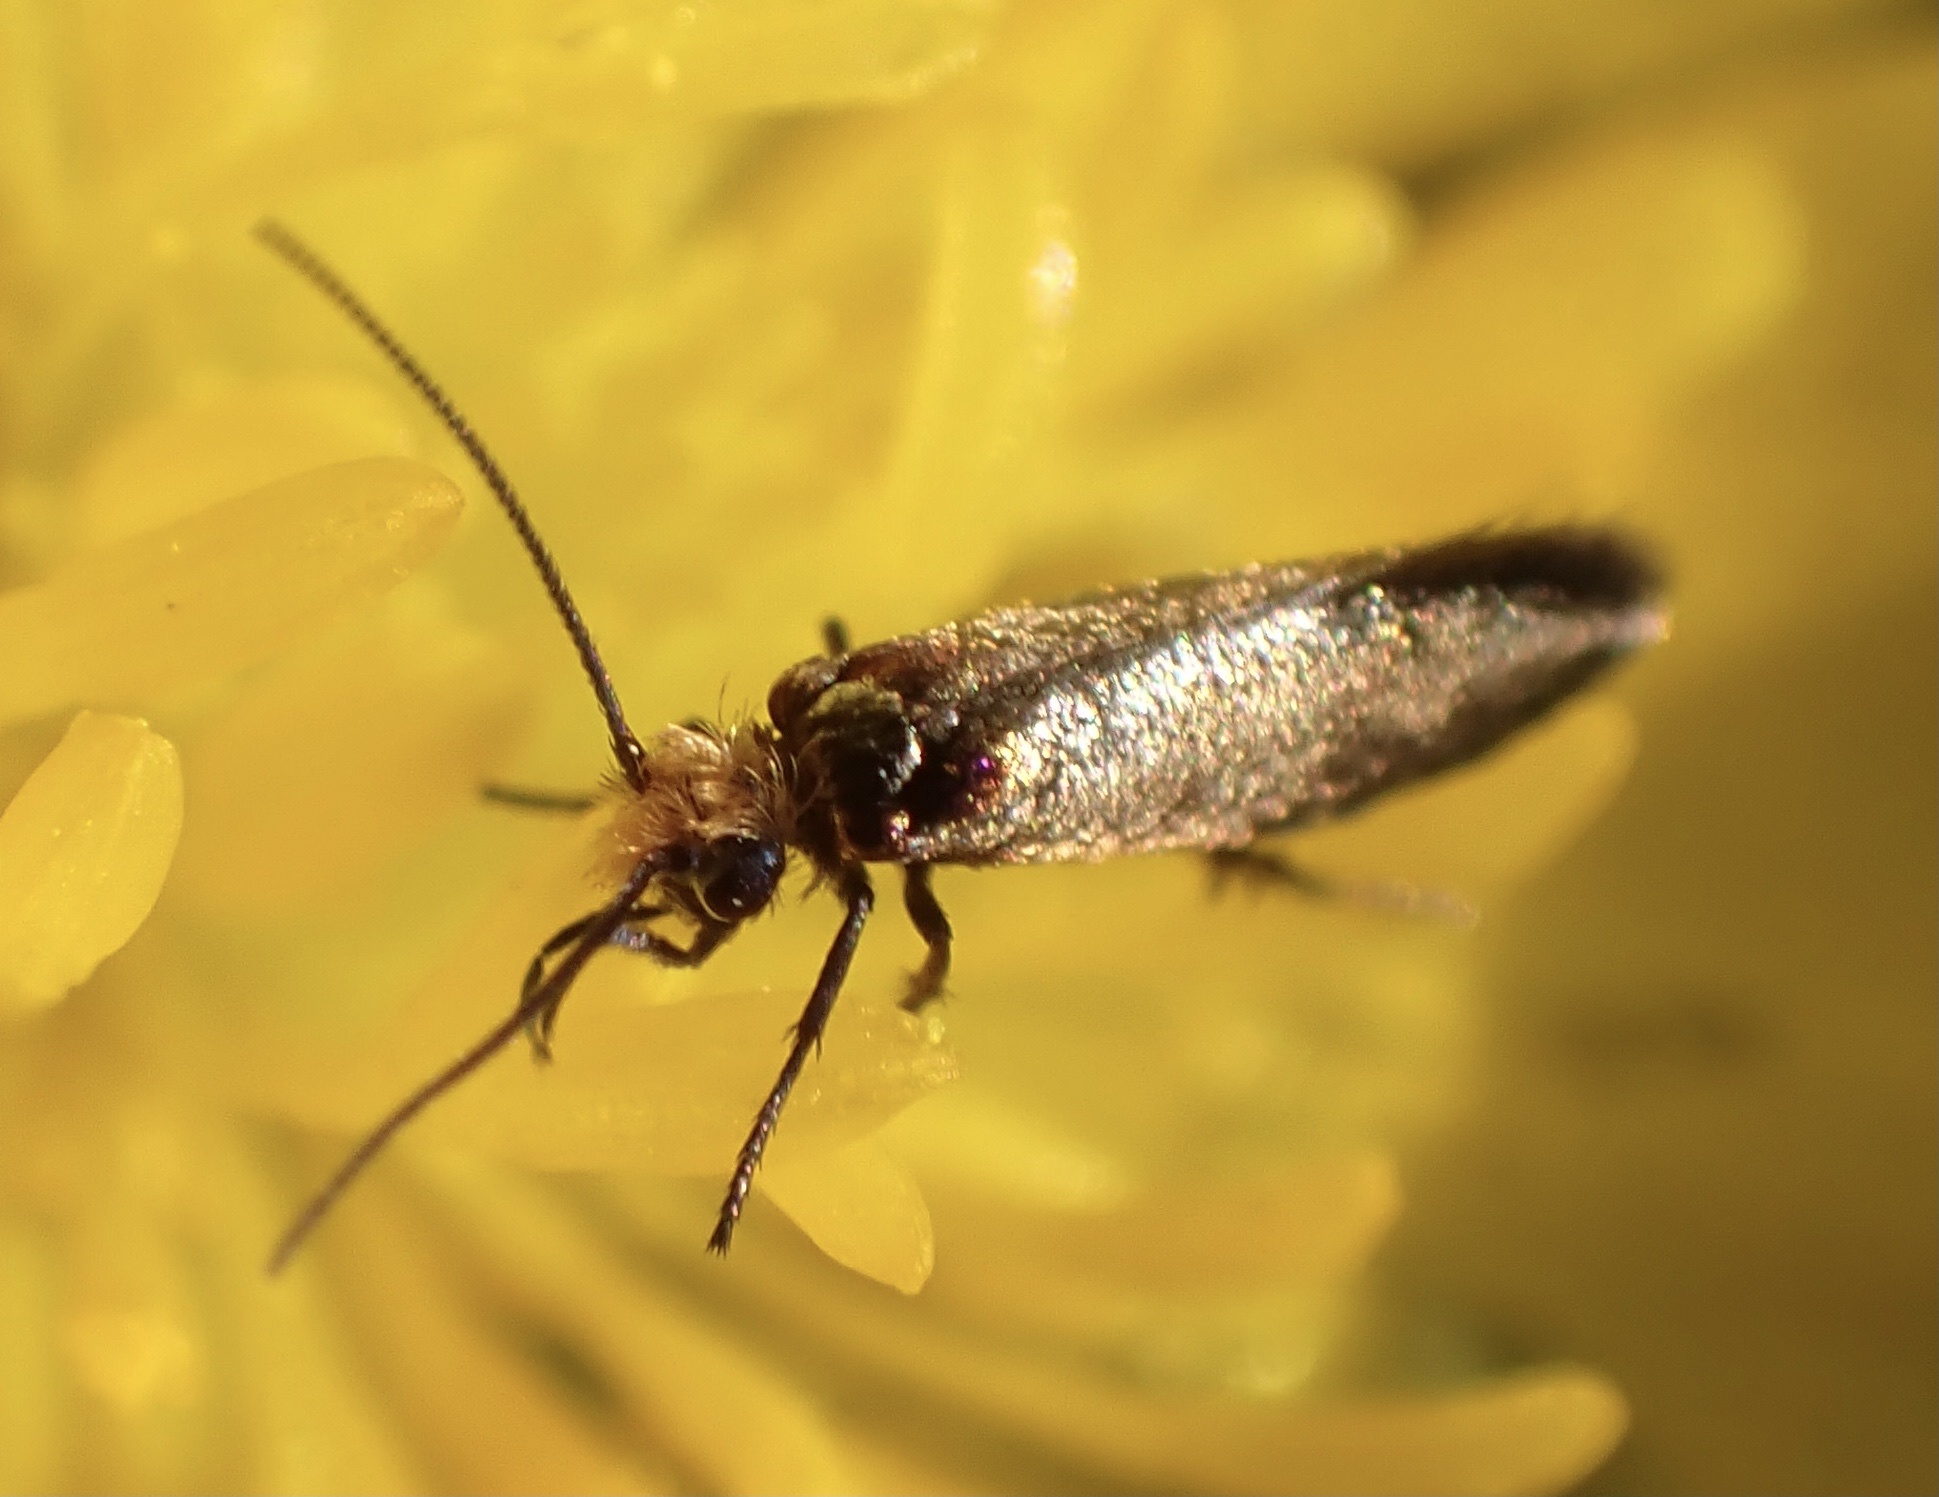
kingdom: Animalia
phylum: Arthropoda
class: Insecta
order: Lepidoptera
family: Micropterigidae
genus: Micropterix
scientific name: Micropterix calthella
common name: Plain gold
